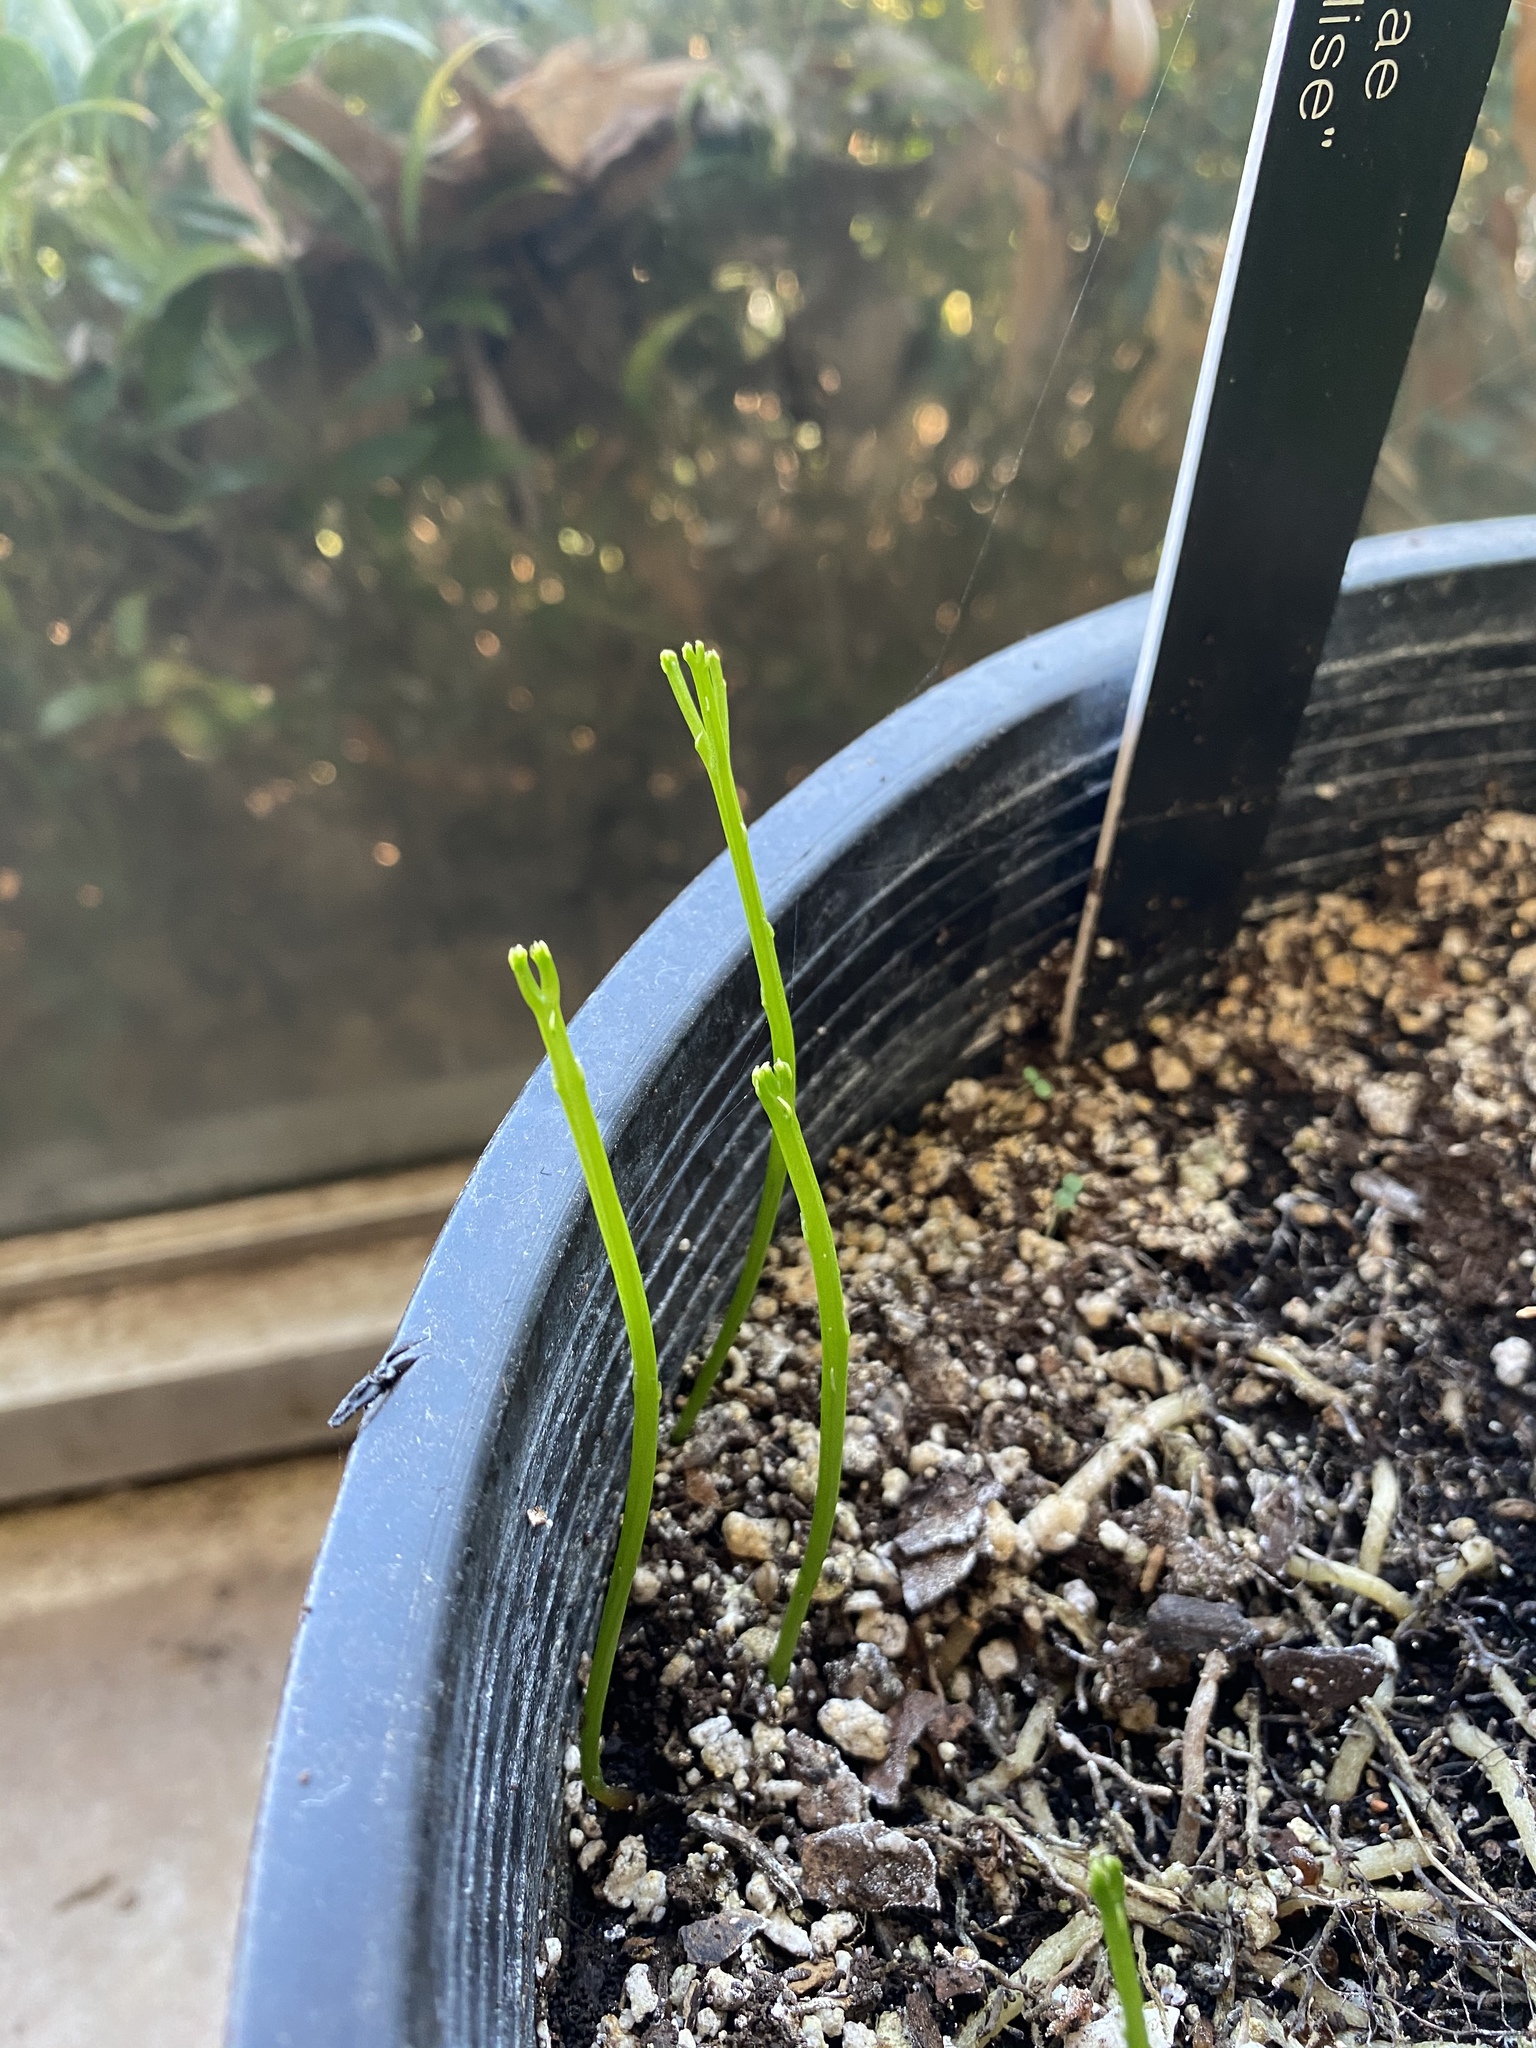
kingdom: Plantae
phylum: Tracheophyta
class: Polypodiopsida
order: Psilotales
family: Psilotaceae
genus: Psilotum
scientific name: Psilotum nudum
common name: Skeleton fork fern
